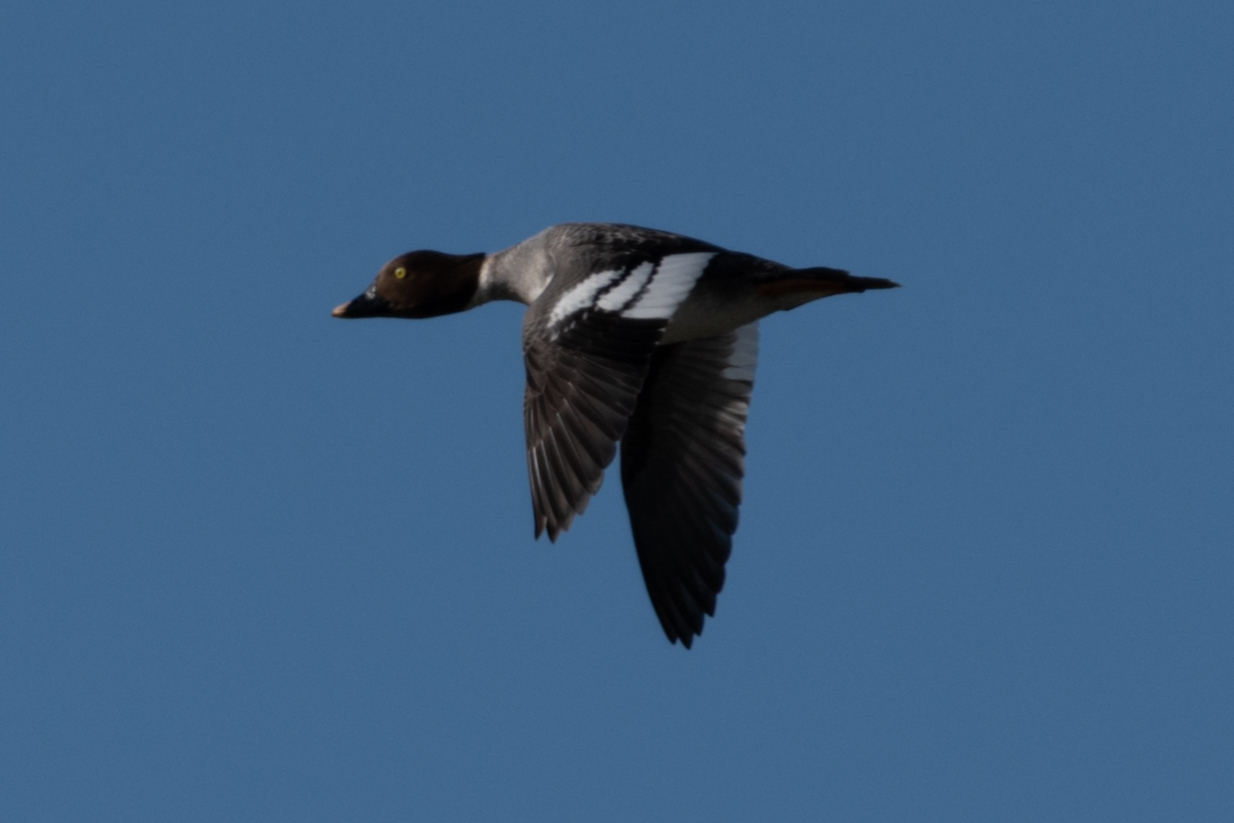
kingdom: Animalia
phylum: Chordata
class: Aves
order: Anseriformes
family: Anatidae
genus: Bucephala
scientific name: Bucephala clangula
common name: Common goldeneye
